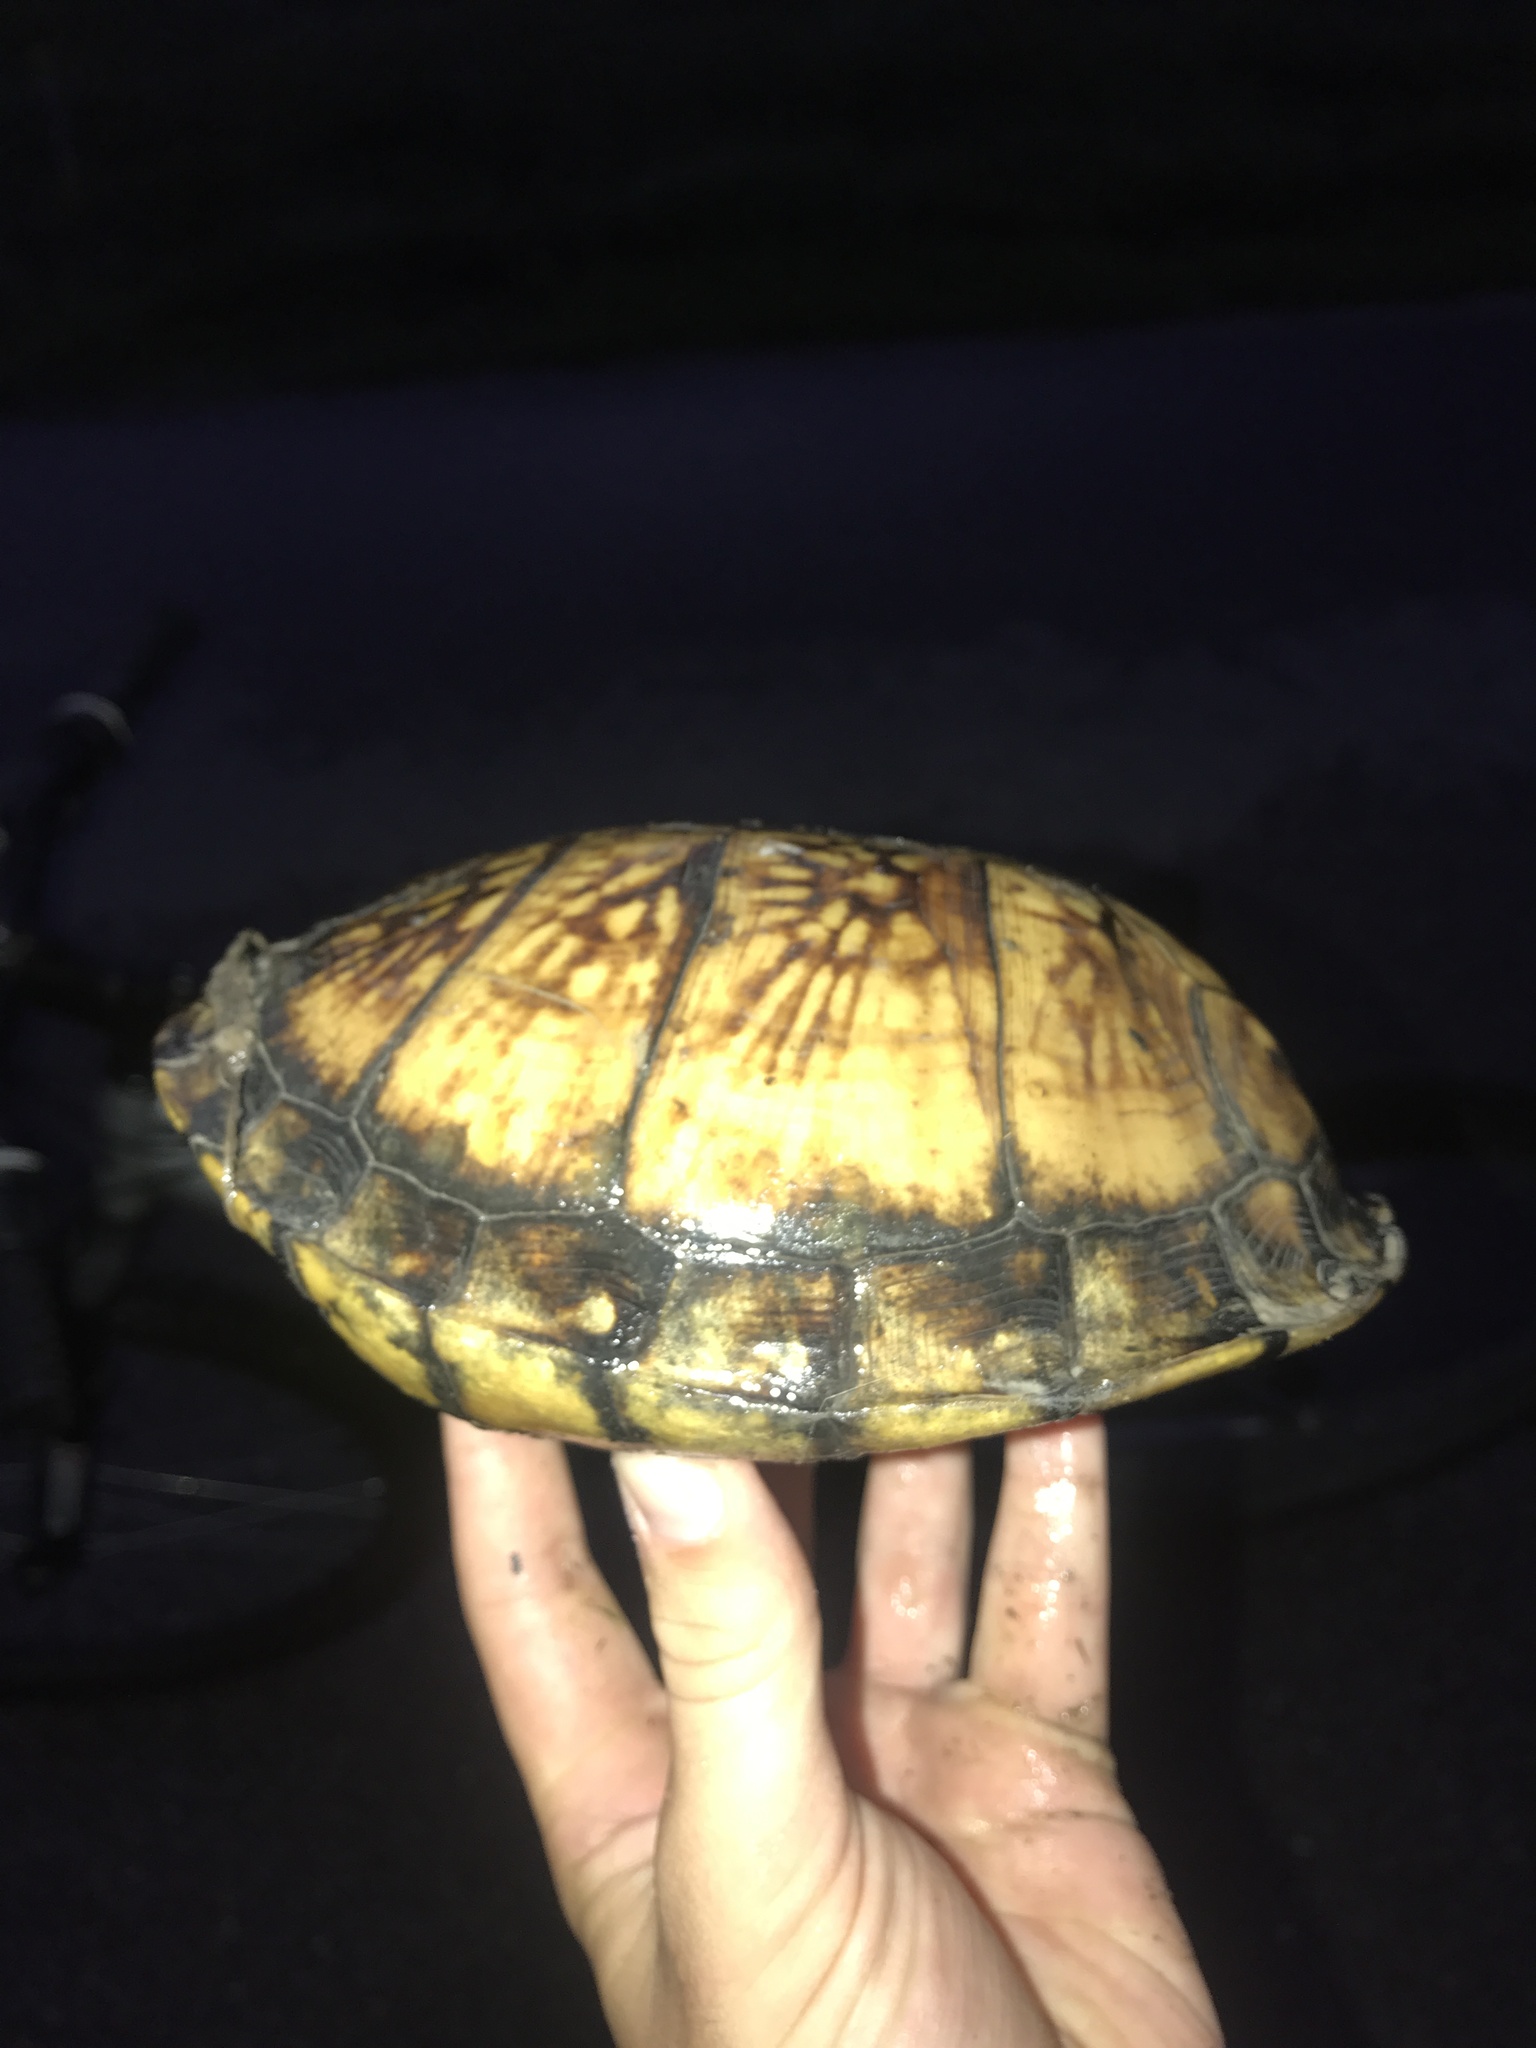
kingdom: Animalia
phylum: Chordata
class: Testudines
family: Emydidae
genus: Terrapene
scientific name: Terrapene carolina
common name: Common box turtle
